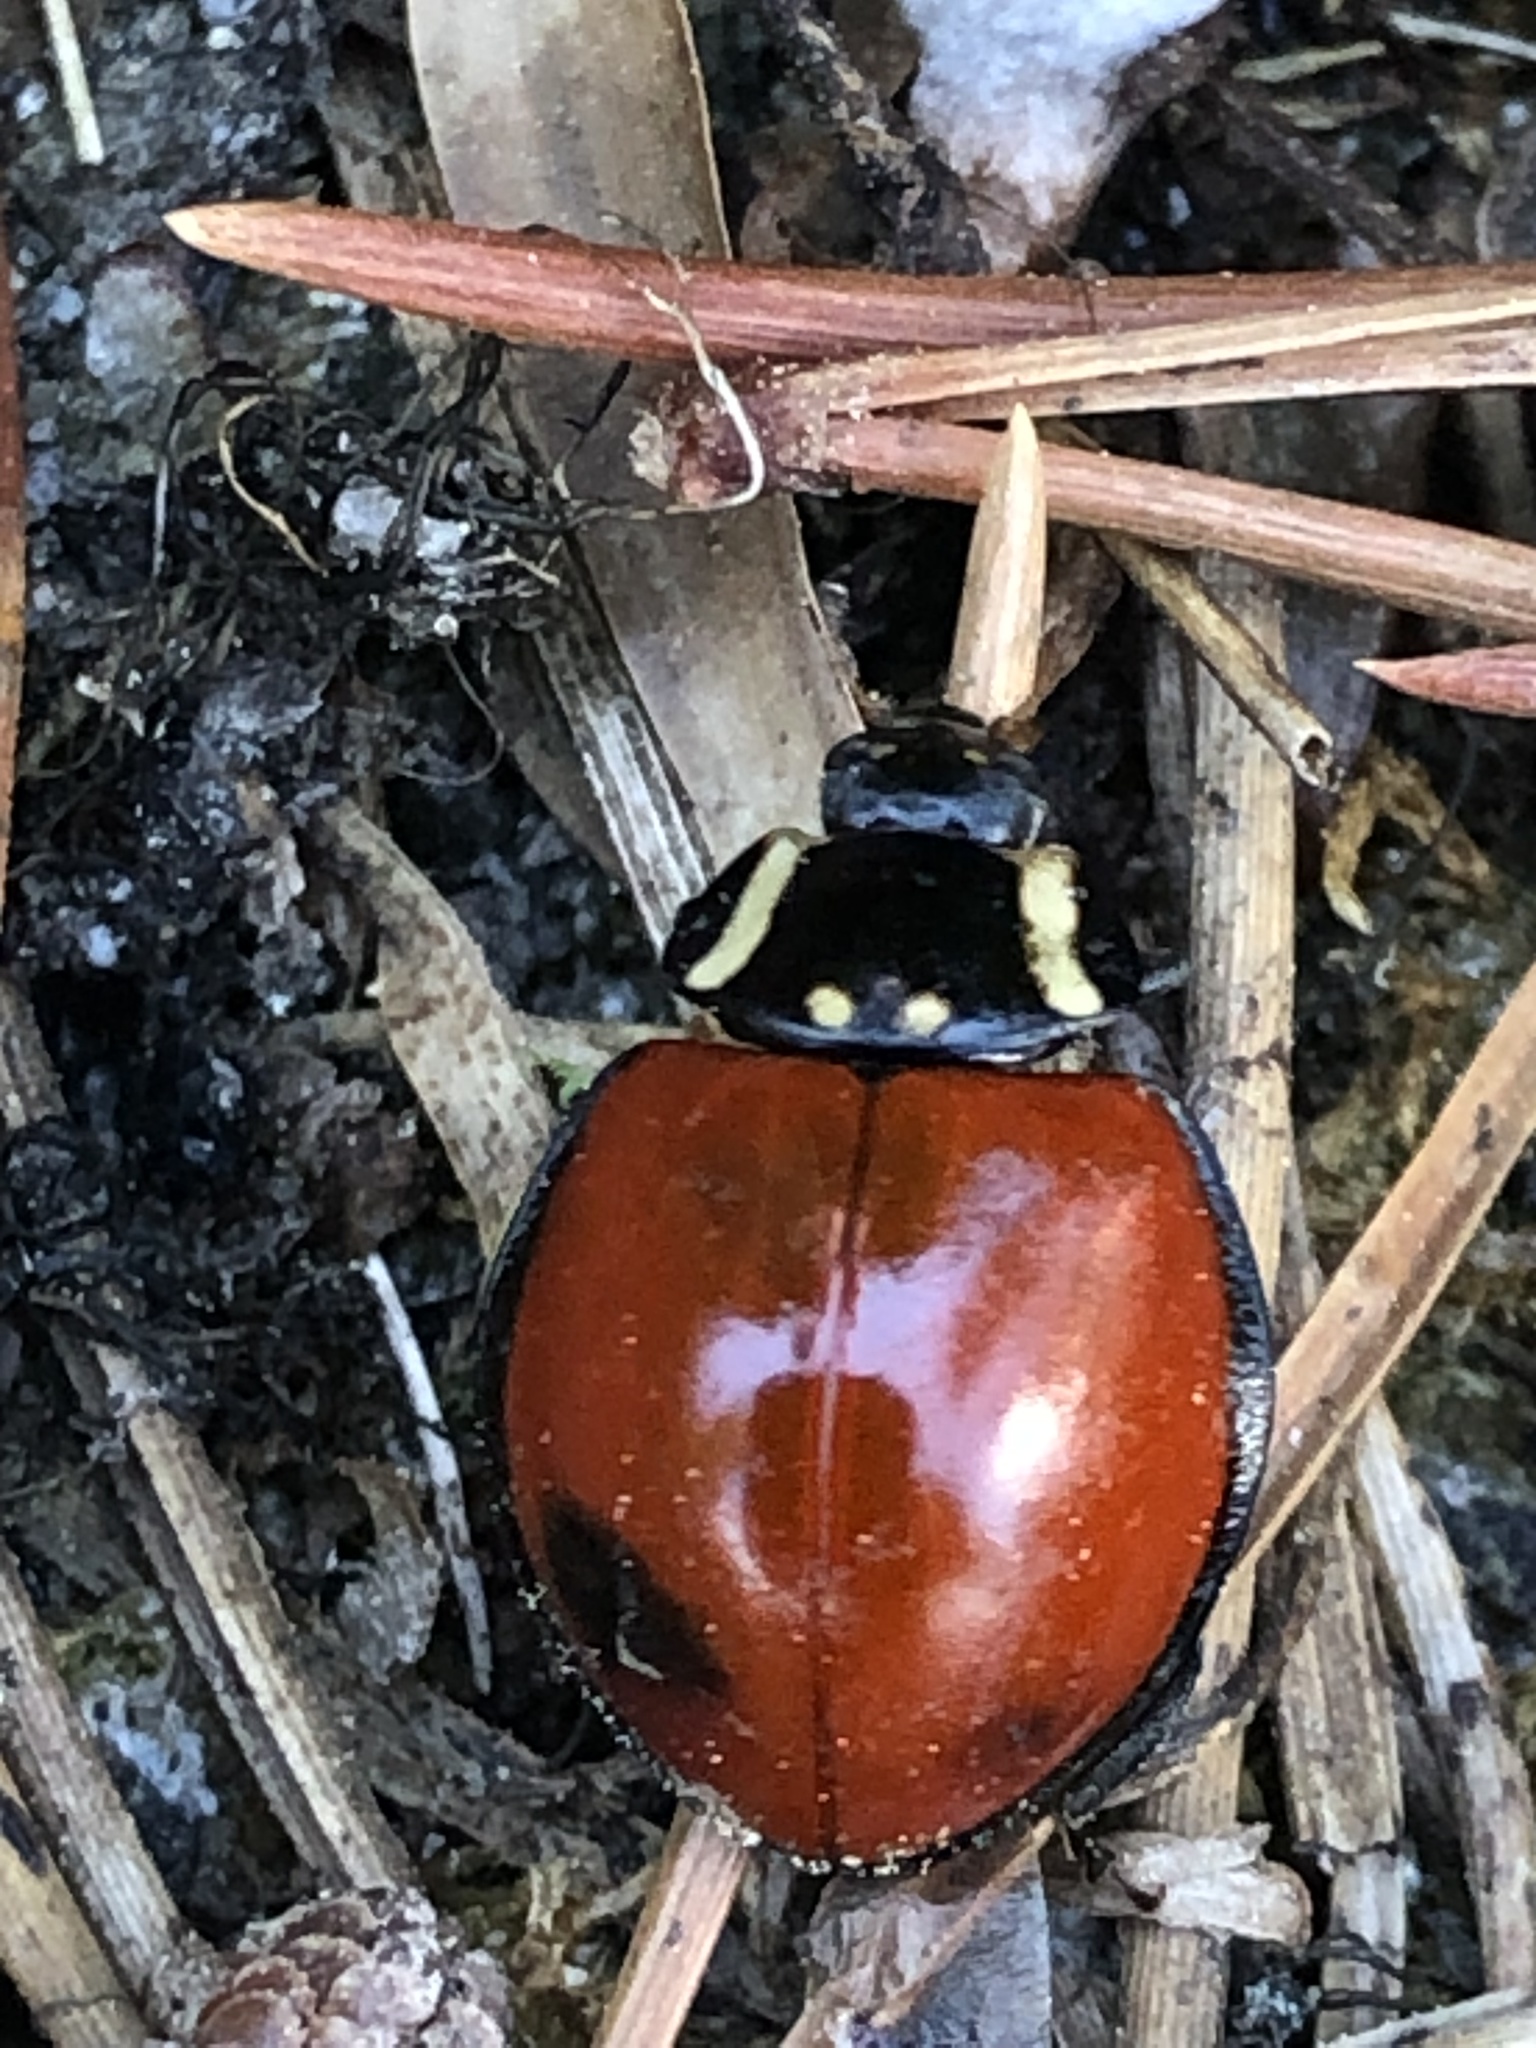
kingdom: Animalia
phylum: Arthropoda
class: Insecta
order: Coleoptera
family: Coccinellidae
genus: Anatis
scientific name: Anatis lecontei
